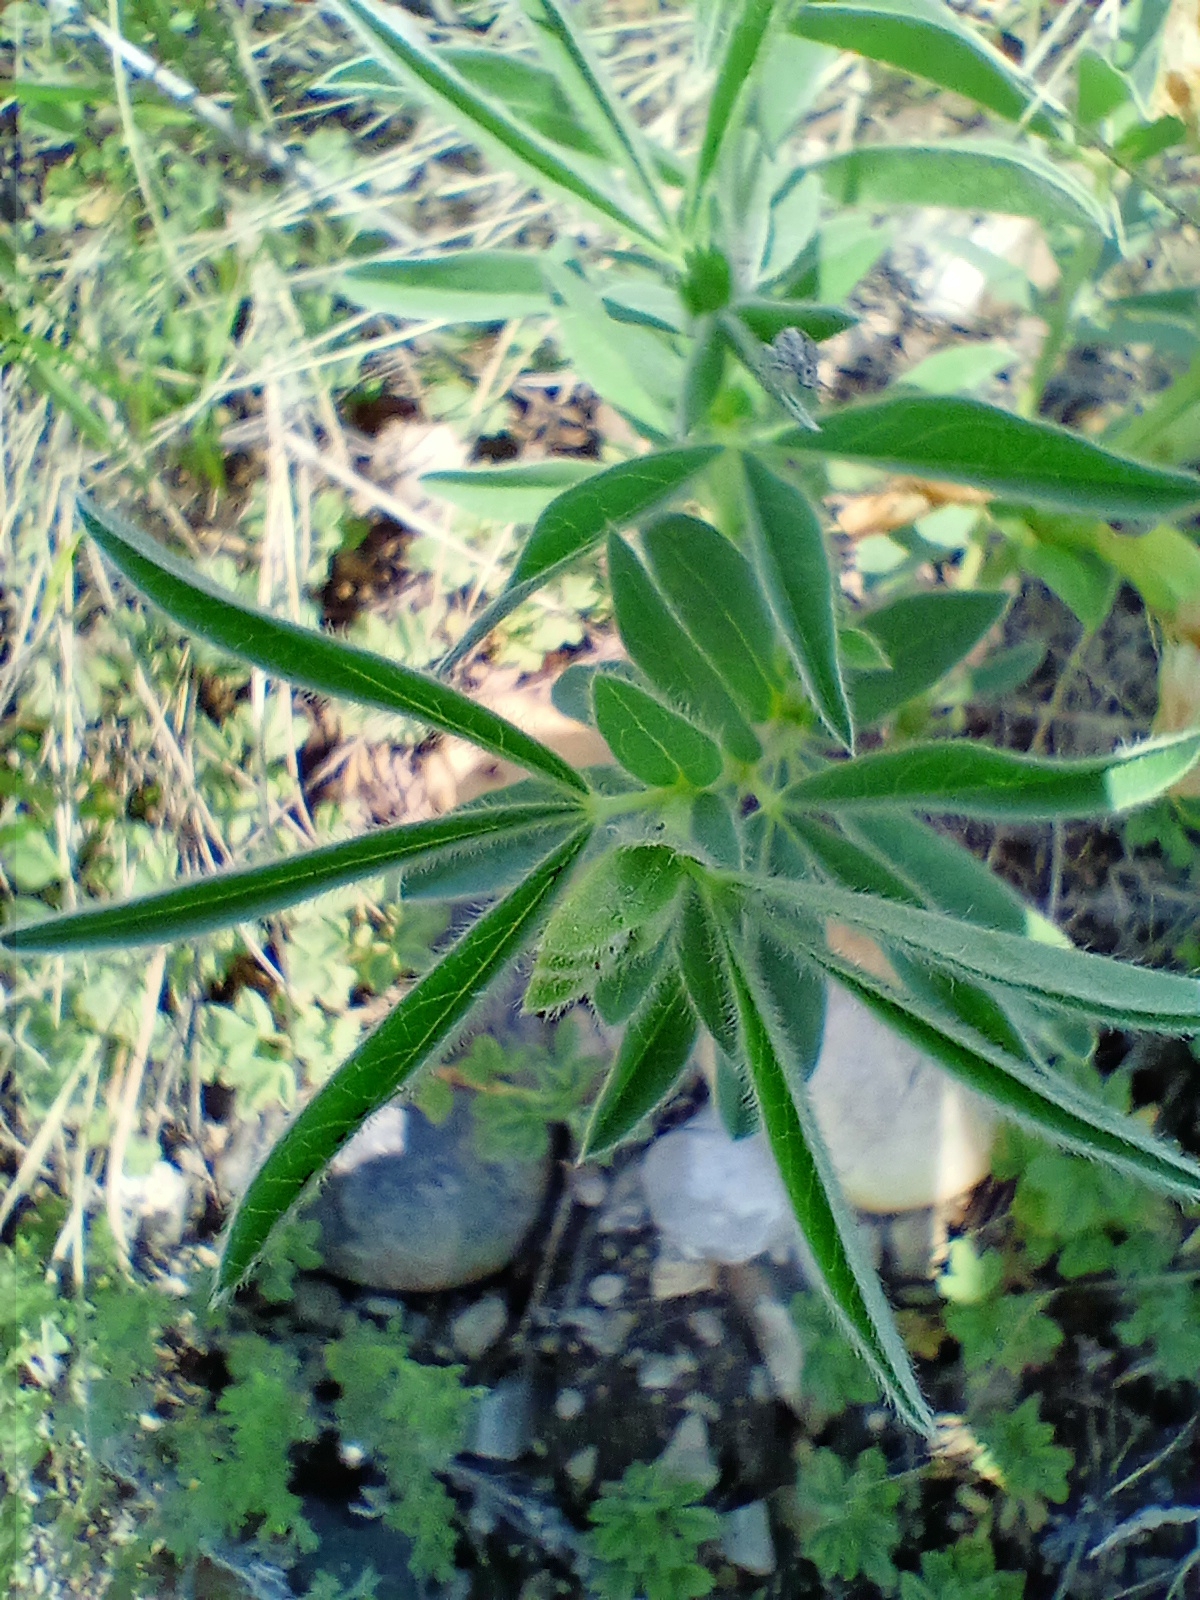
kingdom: Plantae
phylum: Tracheophyta
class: Magnoliopsida
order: Fabales
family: Fabaceae
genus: Thermopsis
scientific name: Thermopsis lanceolata
